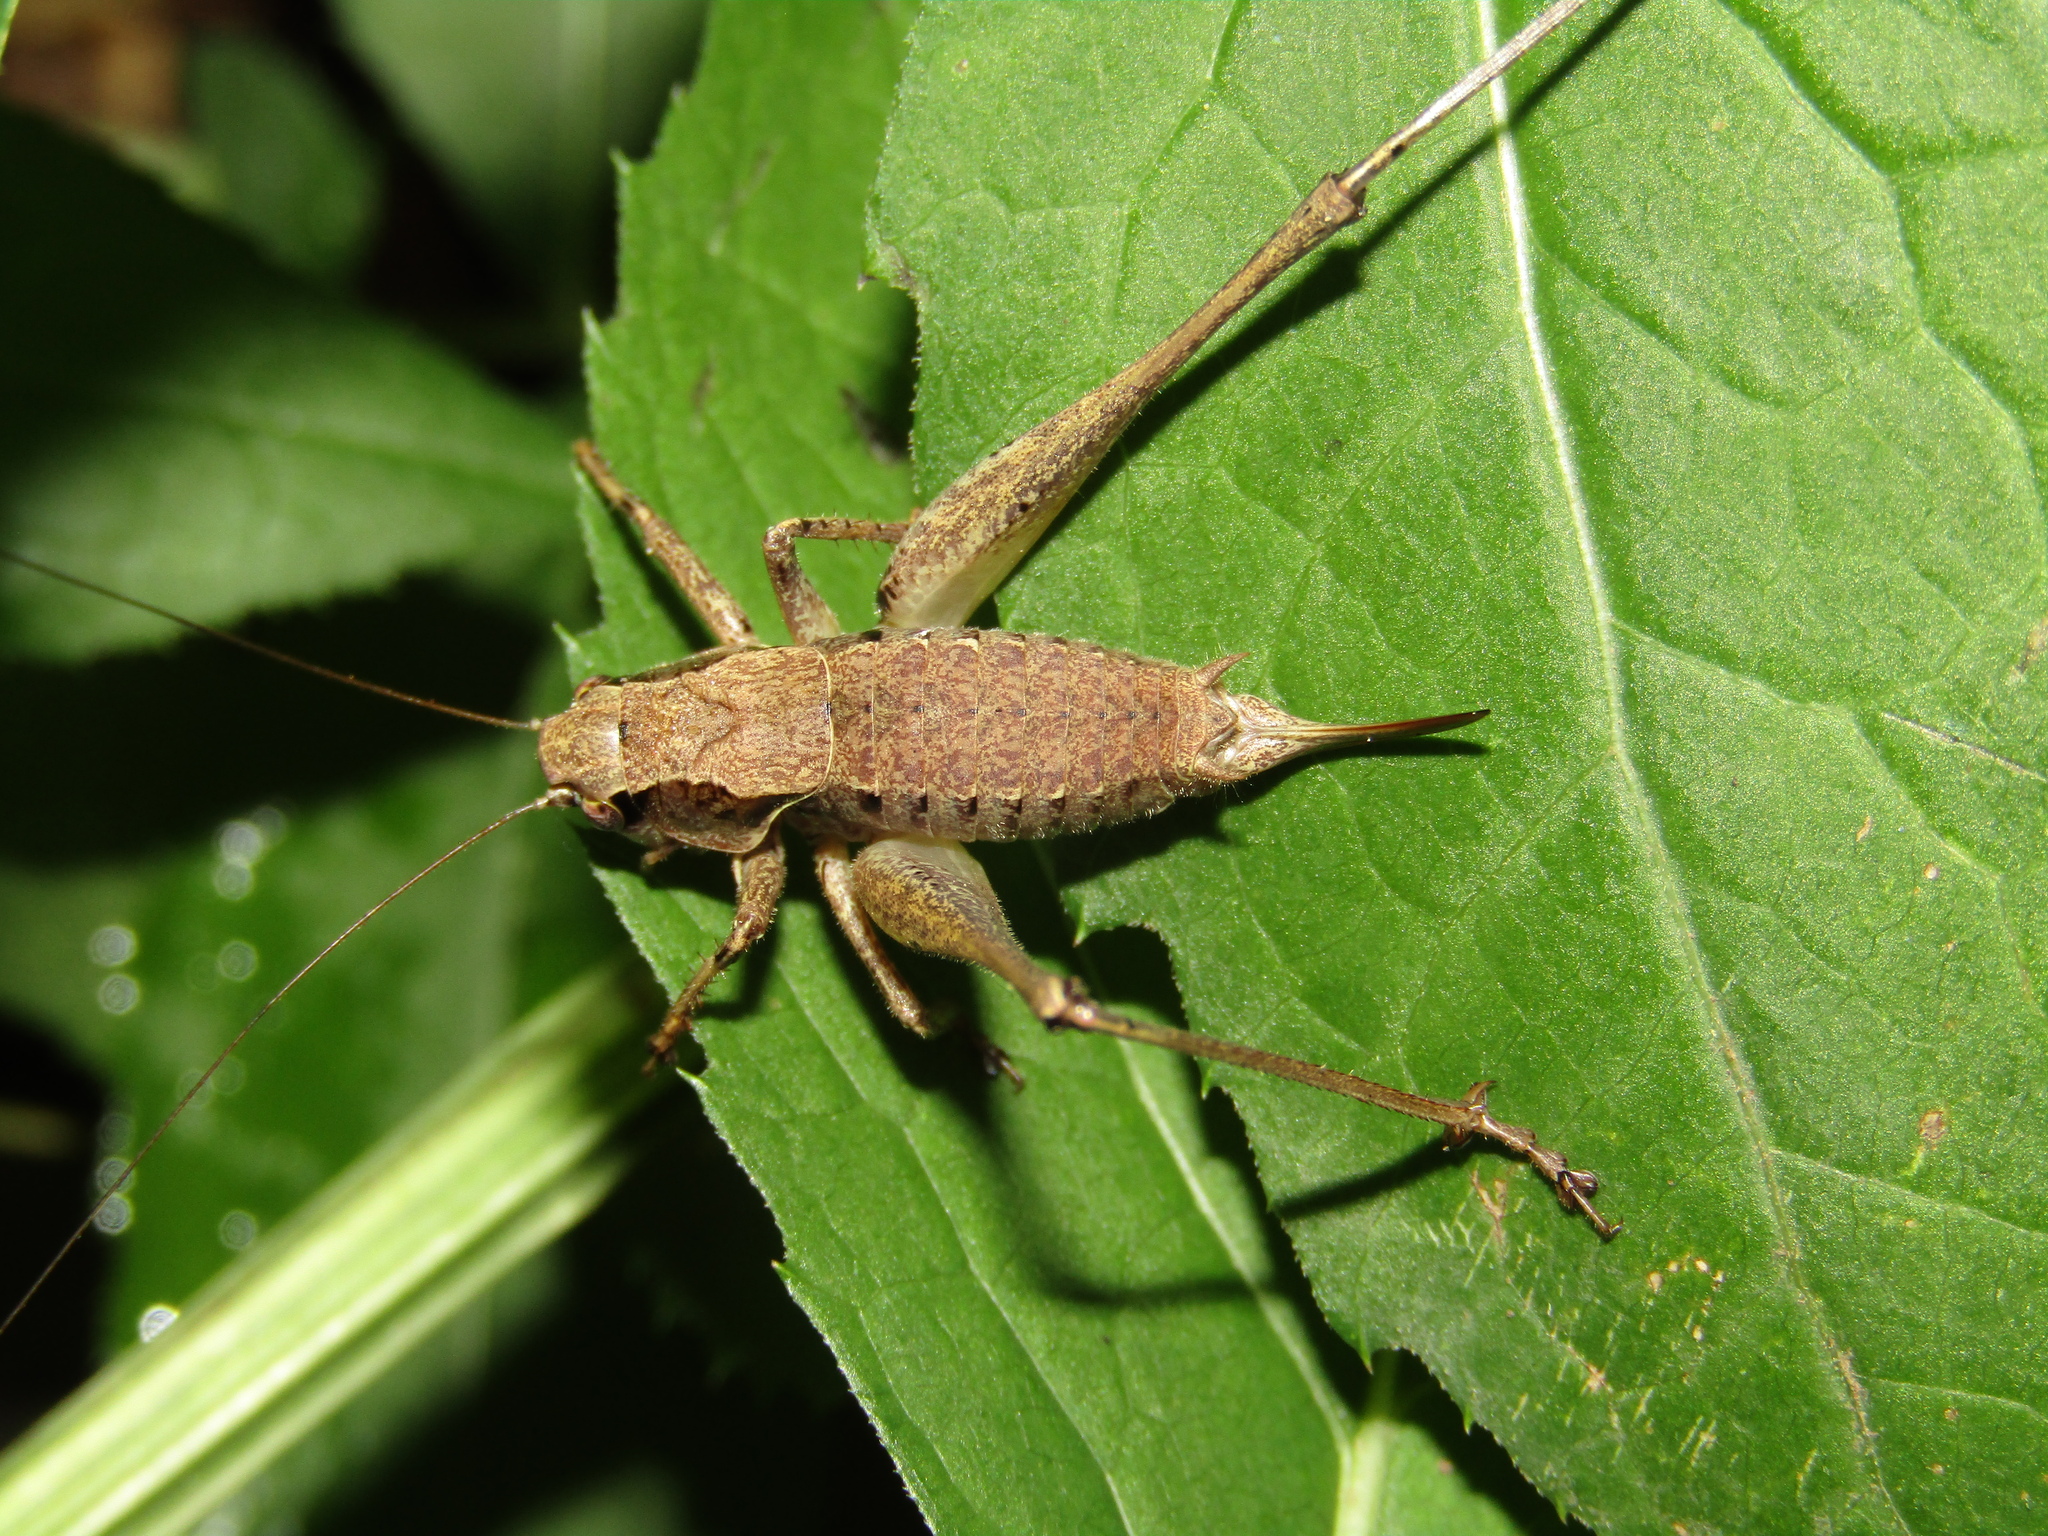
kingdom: Animalia
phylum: Arthropoda
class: Insecta
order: Orthoptera
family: Tettigoniidae
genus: Pholidoptera
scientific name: Pholidoptera griseoaptera
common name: Dark bush-cricket
